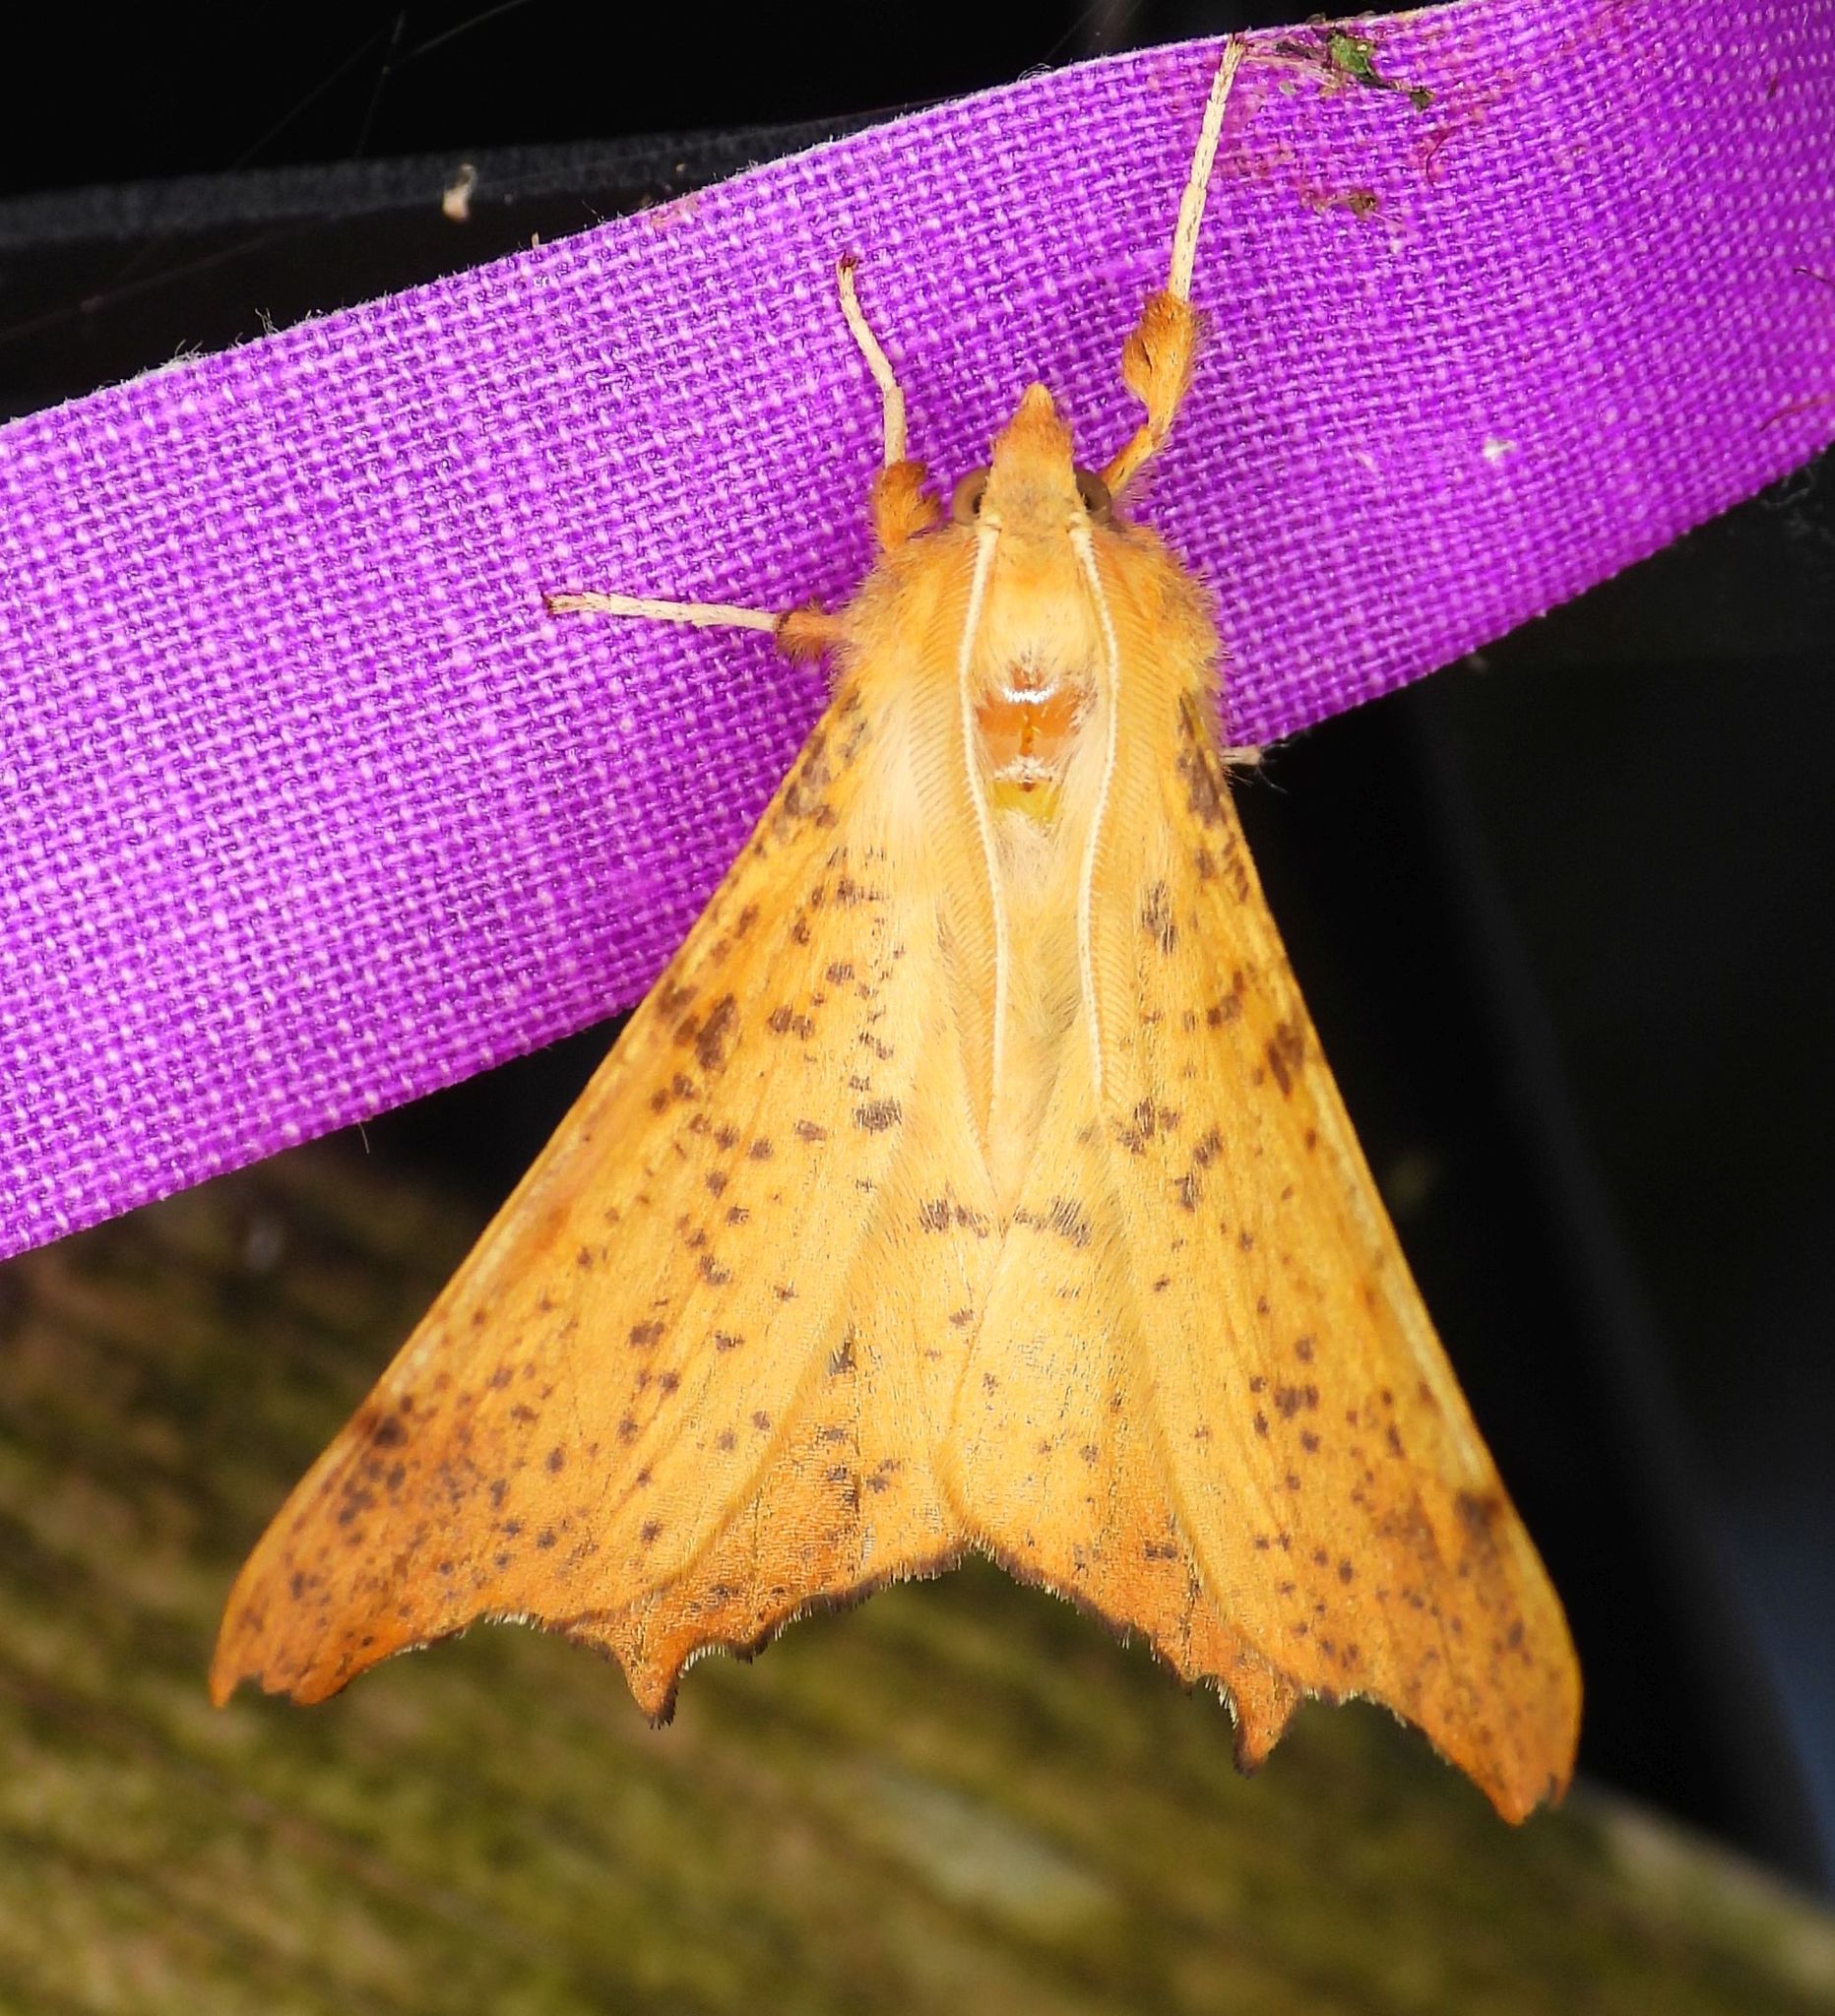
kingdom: Animalia
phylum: Arthropoda
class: Insecta
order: Lepidoptera
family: Geometridae
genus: Ennomos
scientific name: Ennomos magnaria
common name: Maple spanworm
